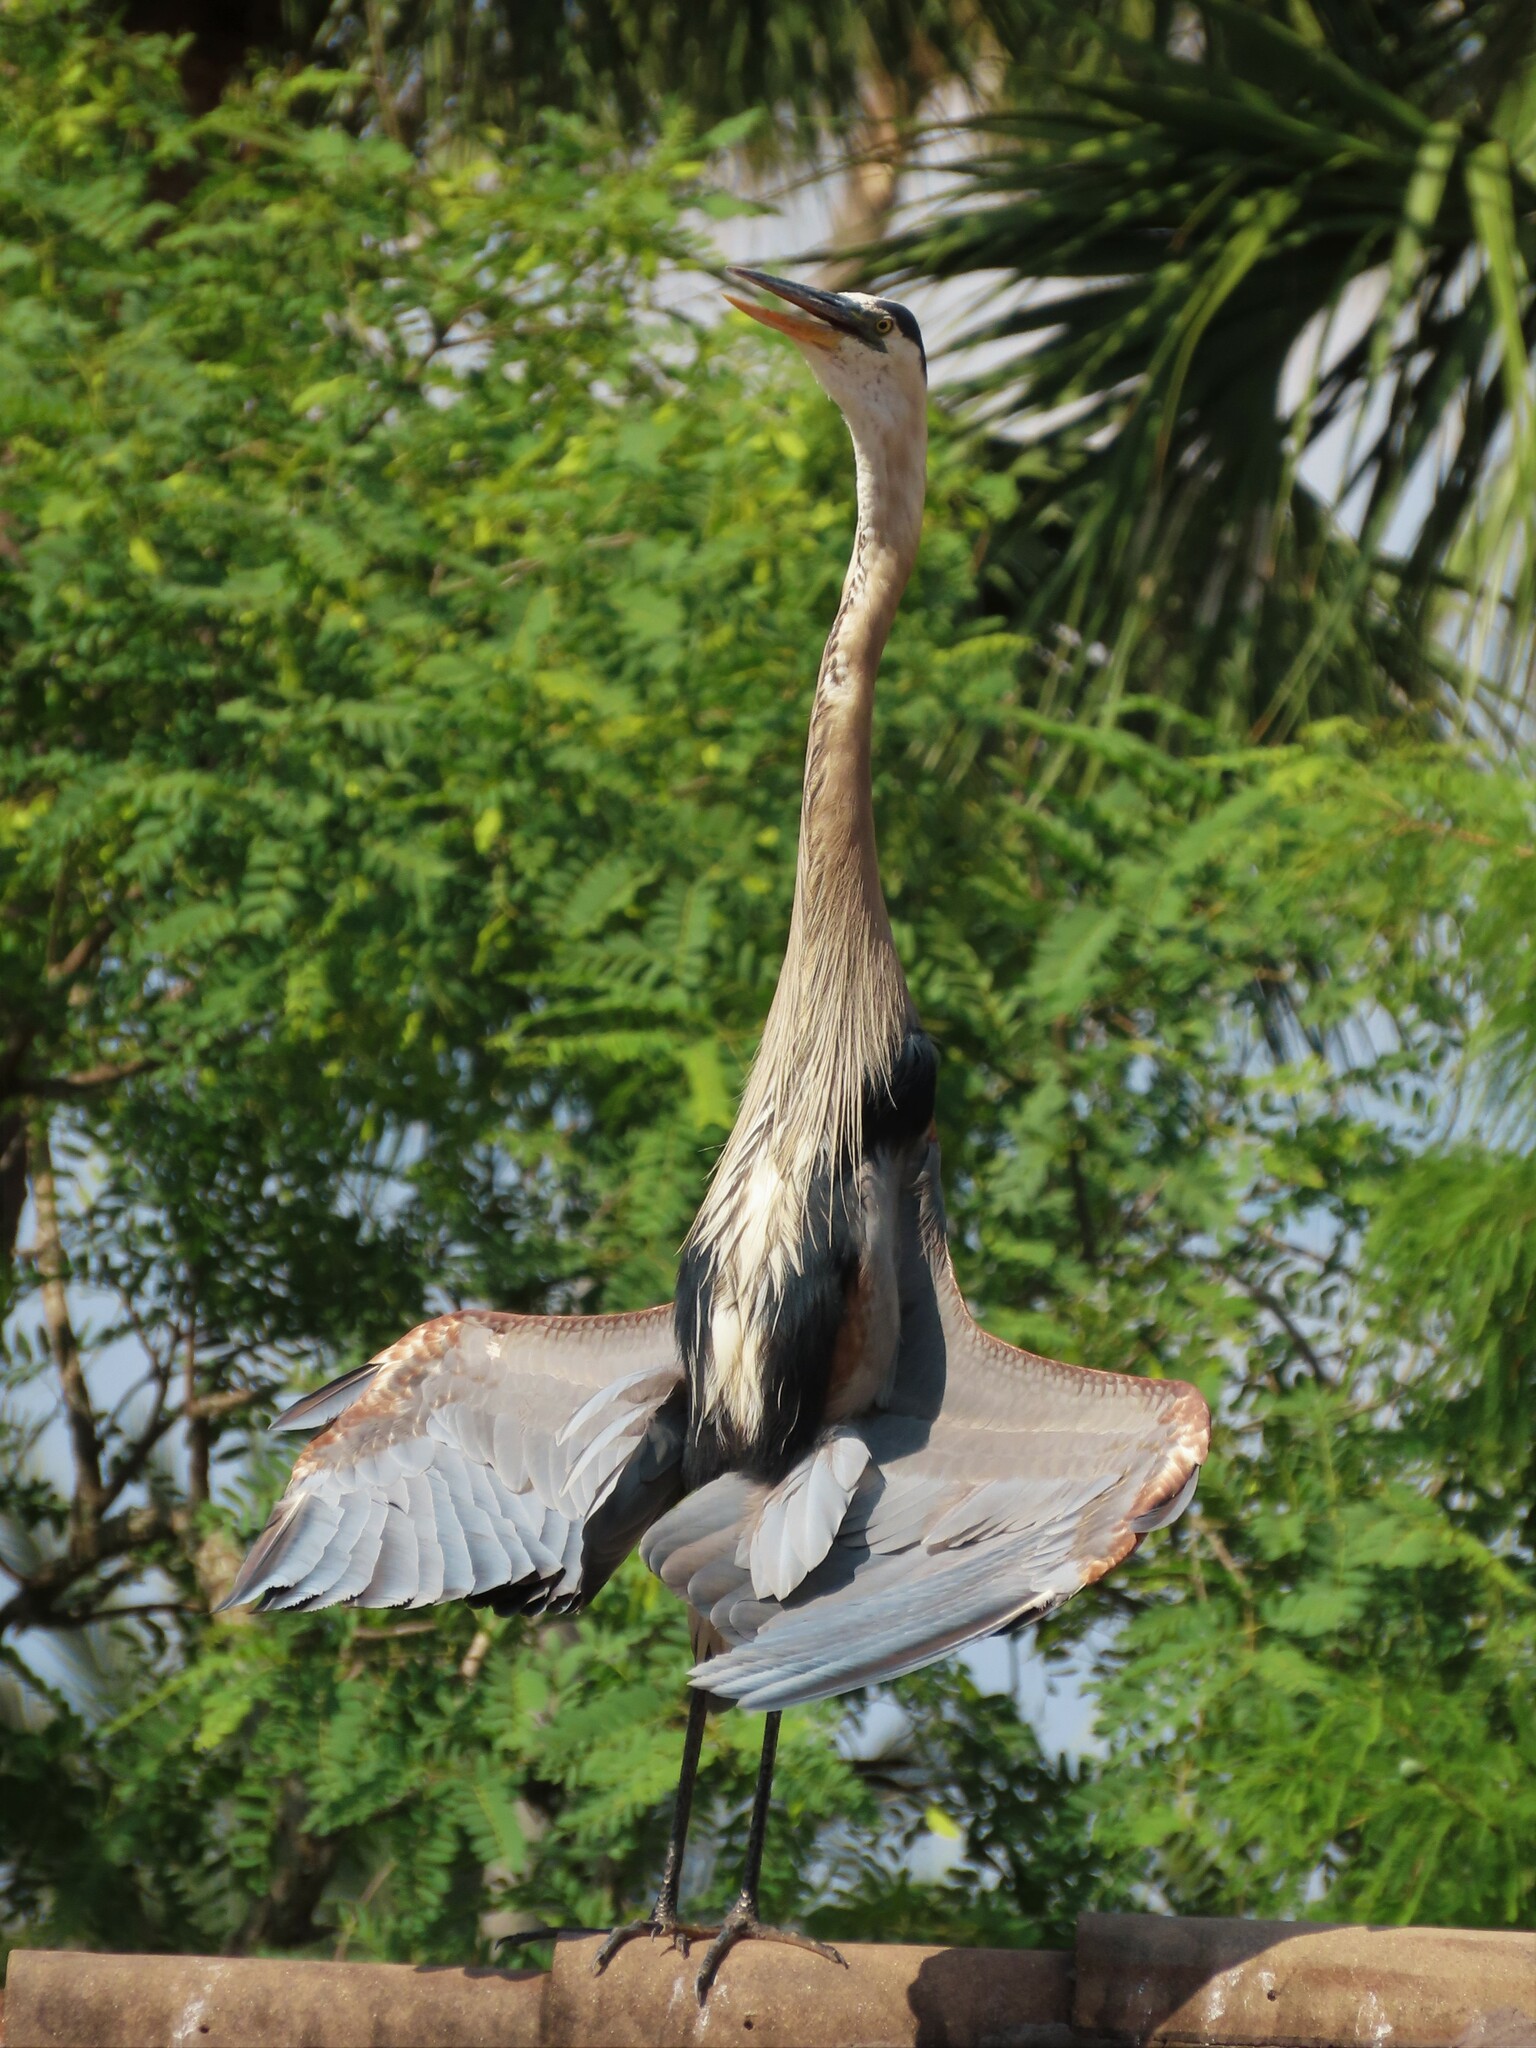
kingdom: Animalia
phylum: Chordata
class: Aves
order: Pelecaniformes
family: Ardeidae
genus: Ardea
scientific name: Ardea herodias
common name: Great blue heron
